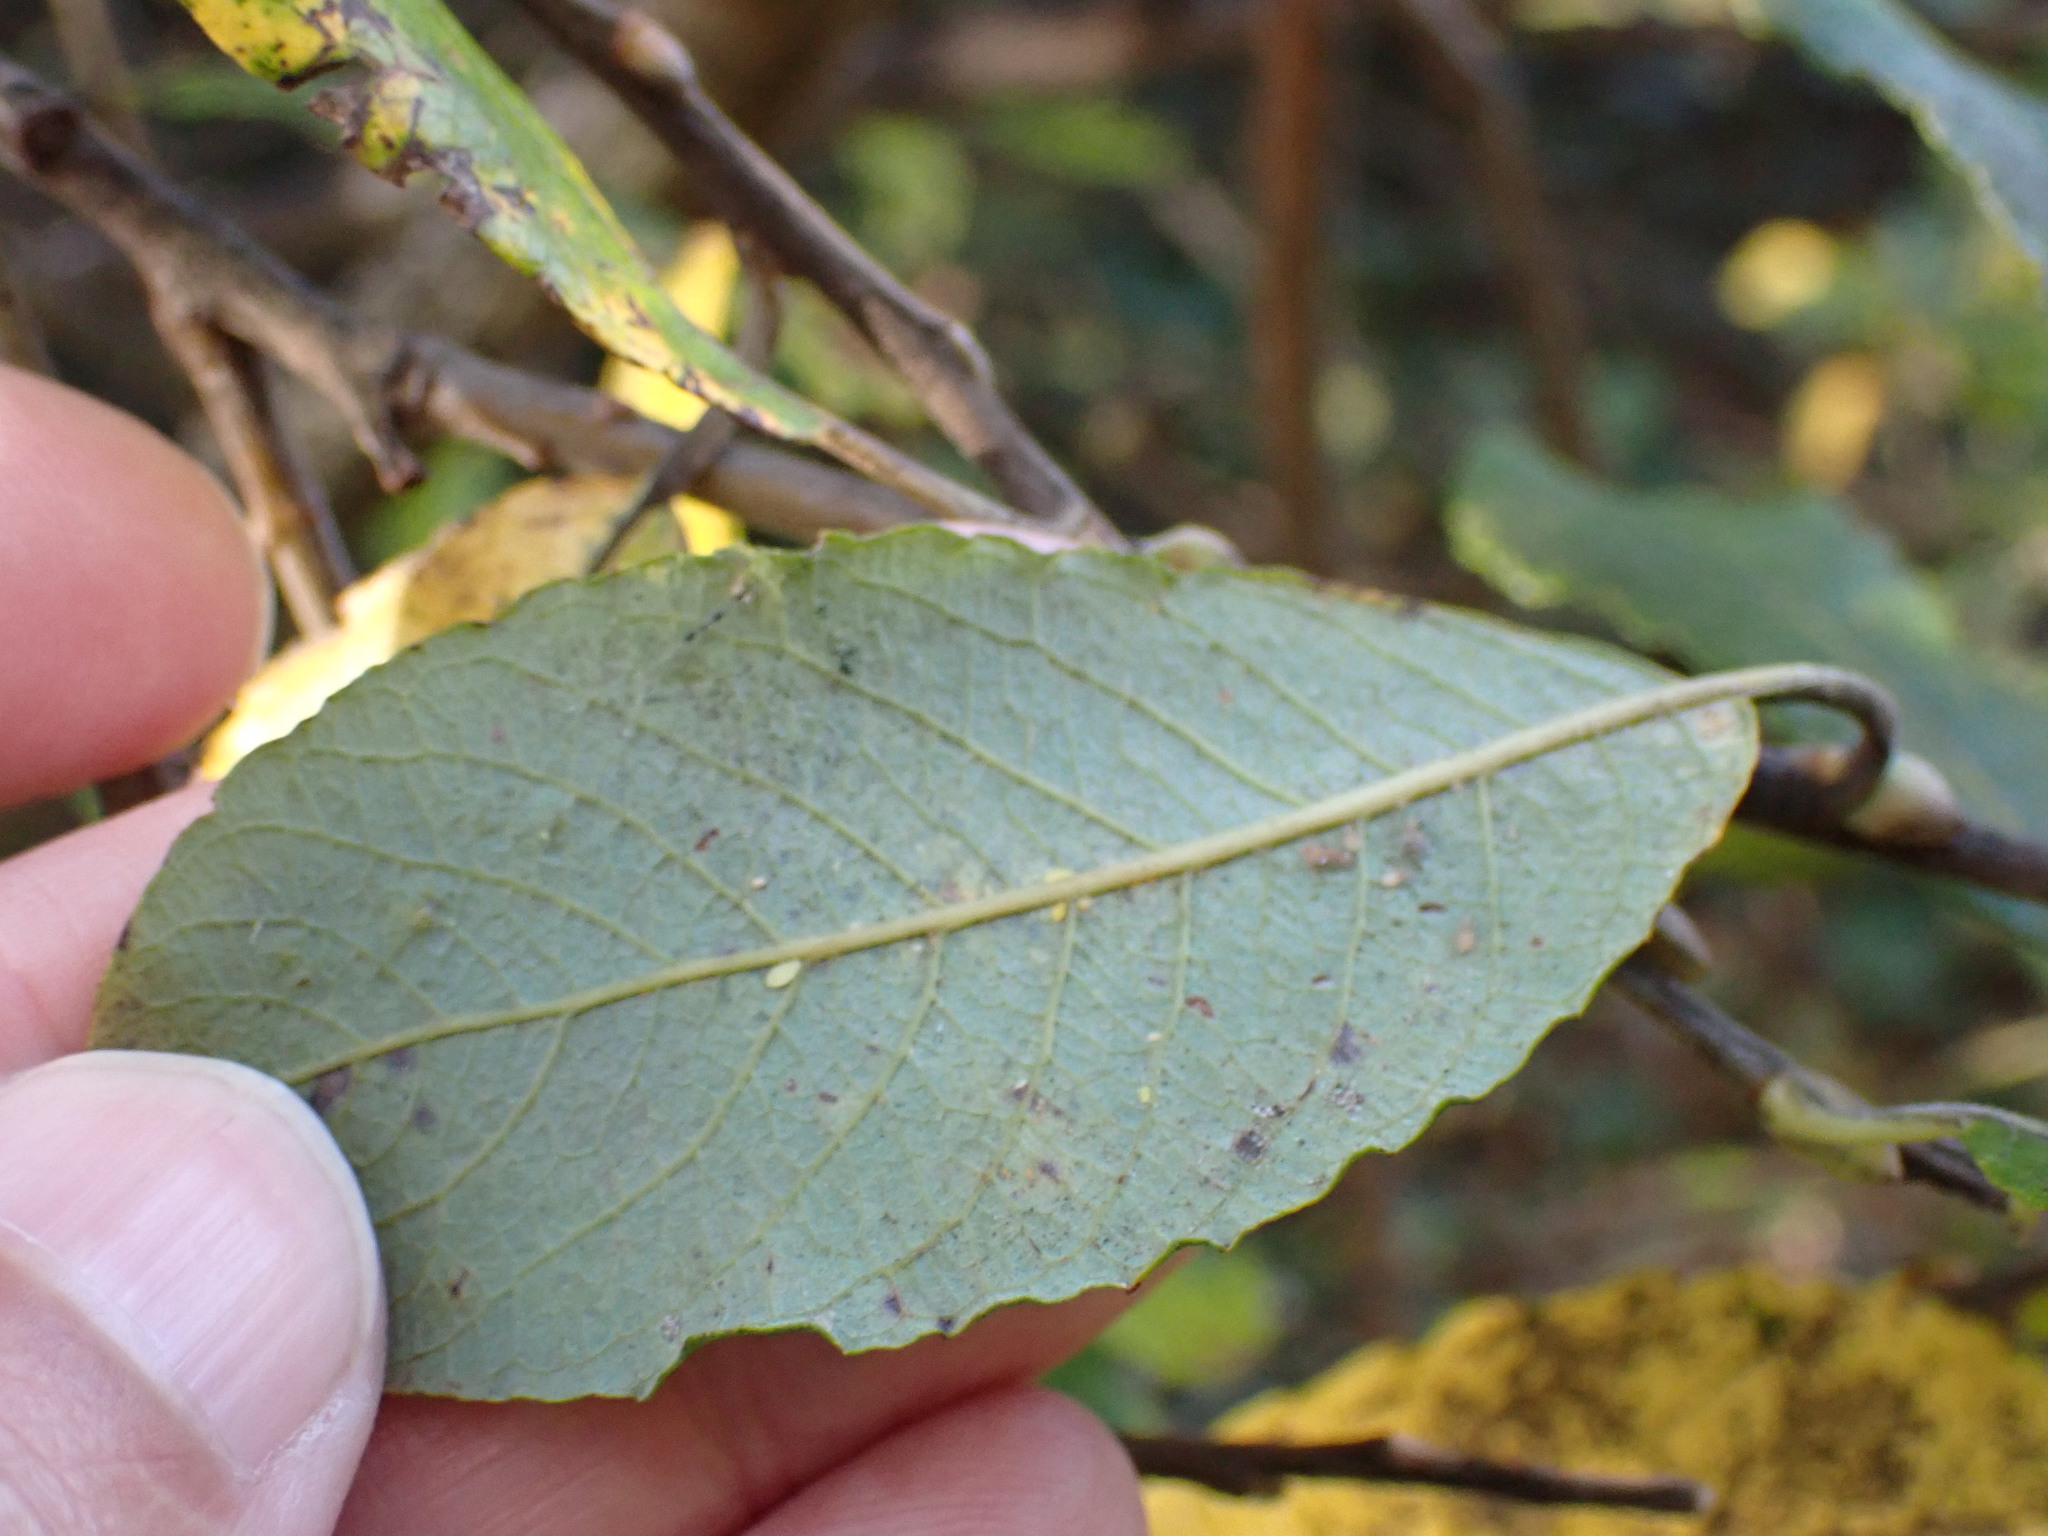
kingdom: Plantae
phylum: Tracheophyta
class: Magnoliopsida
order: Malpighiales
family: Salicaceae
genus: Salix
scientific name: Salix cinerea
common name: Common sallow
